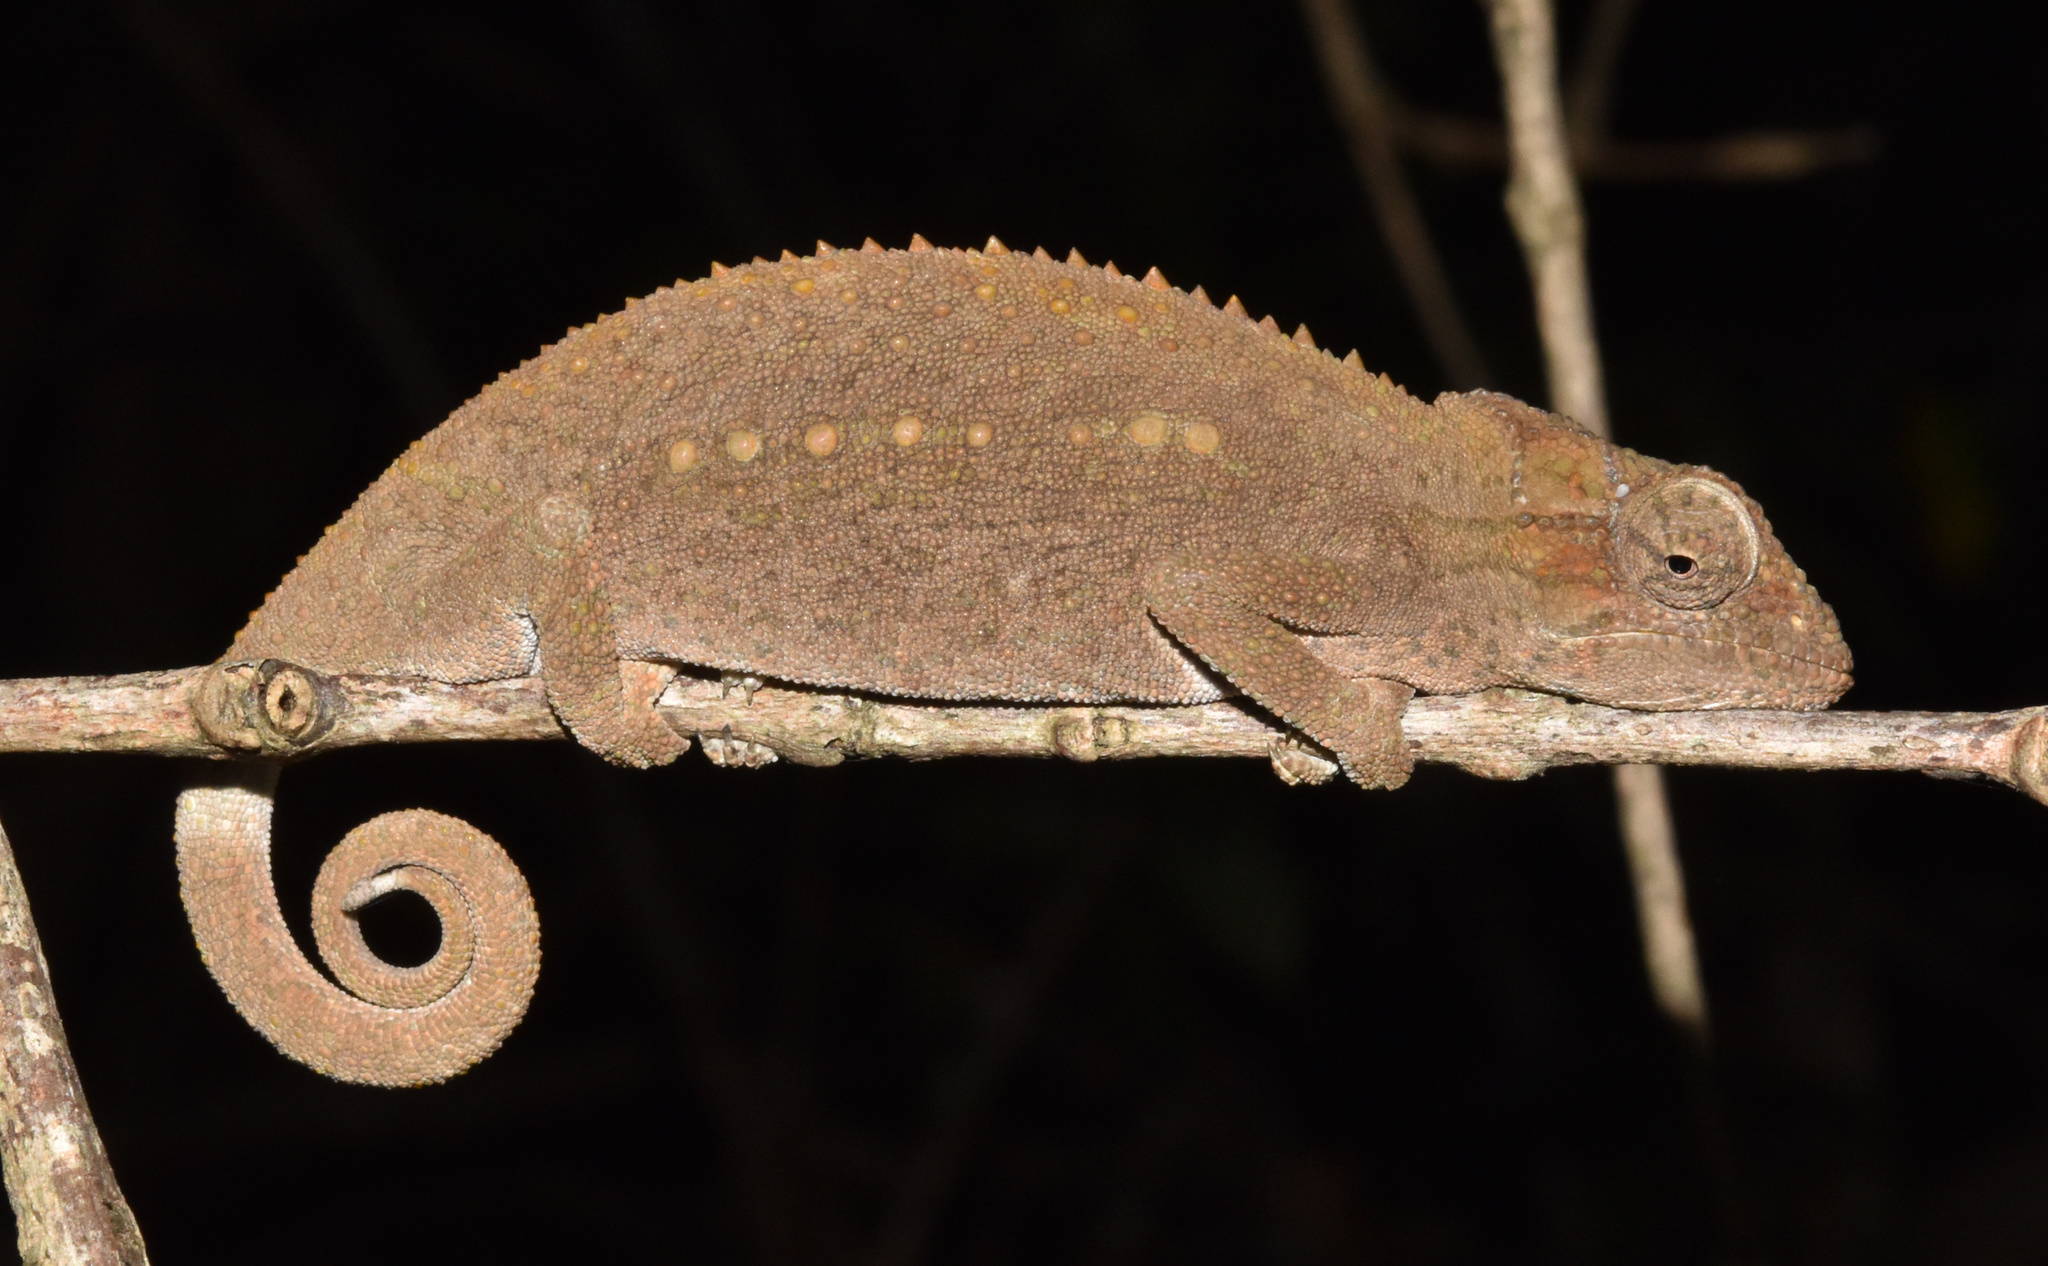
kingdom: Animalia
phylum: Chordata
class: Squamata
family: Chamaeleonidae
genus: Bradypodion
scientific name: Bradypodion melanocephalum
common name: Black-headed dwarf chameleon
